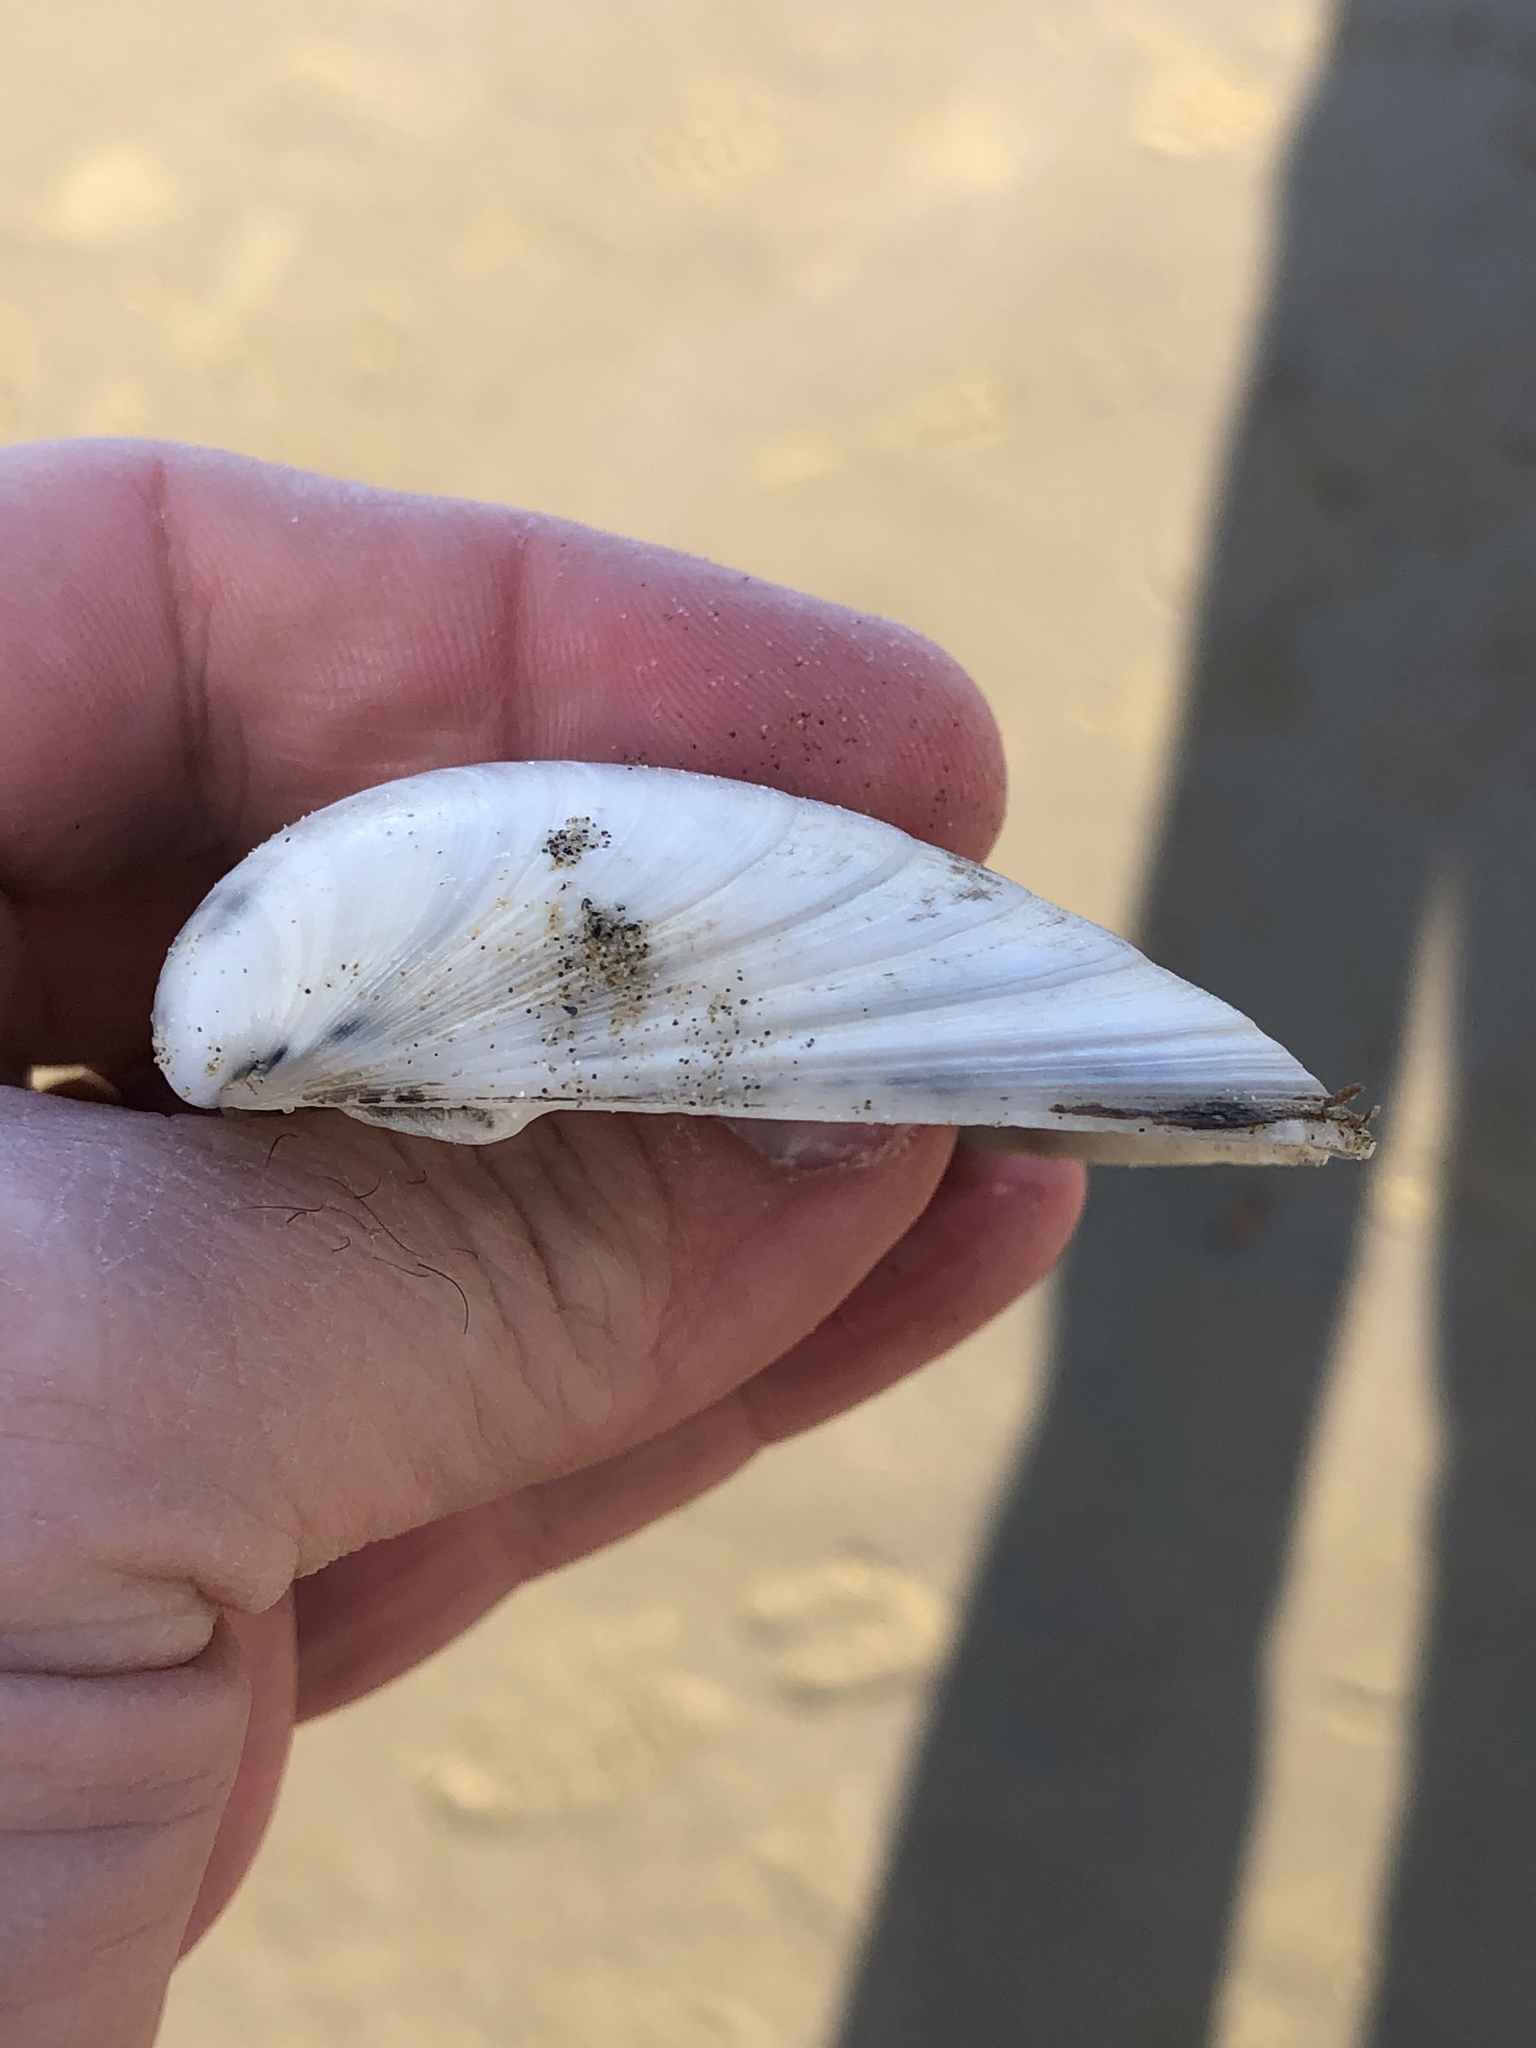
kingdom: Animalia
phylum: Mollusca
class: Bivalvia
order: Venerida
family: Mactridae
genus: Spisula
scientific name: Spisula murchisoni
